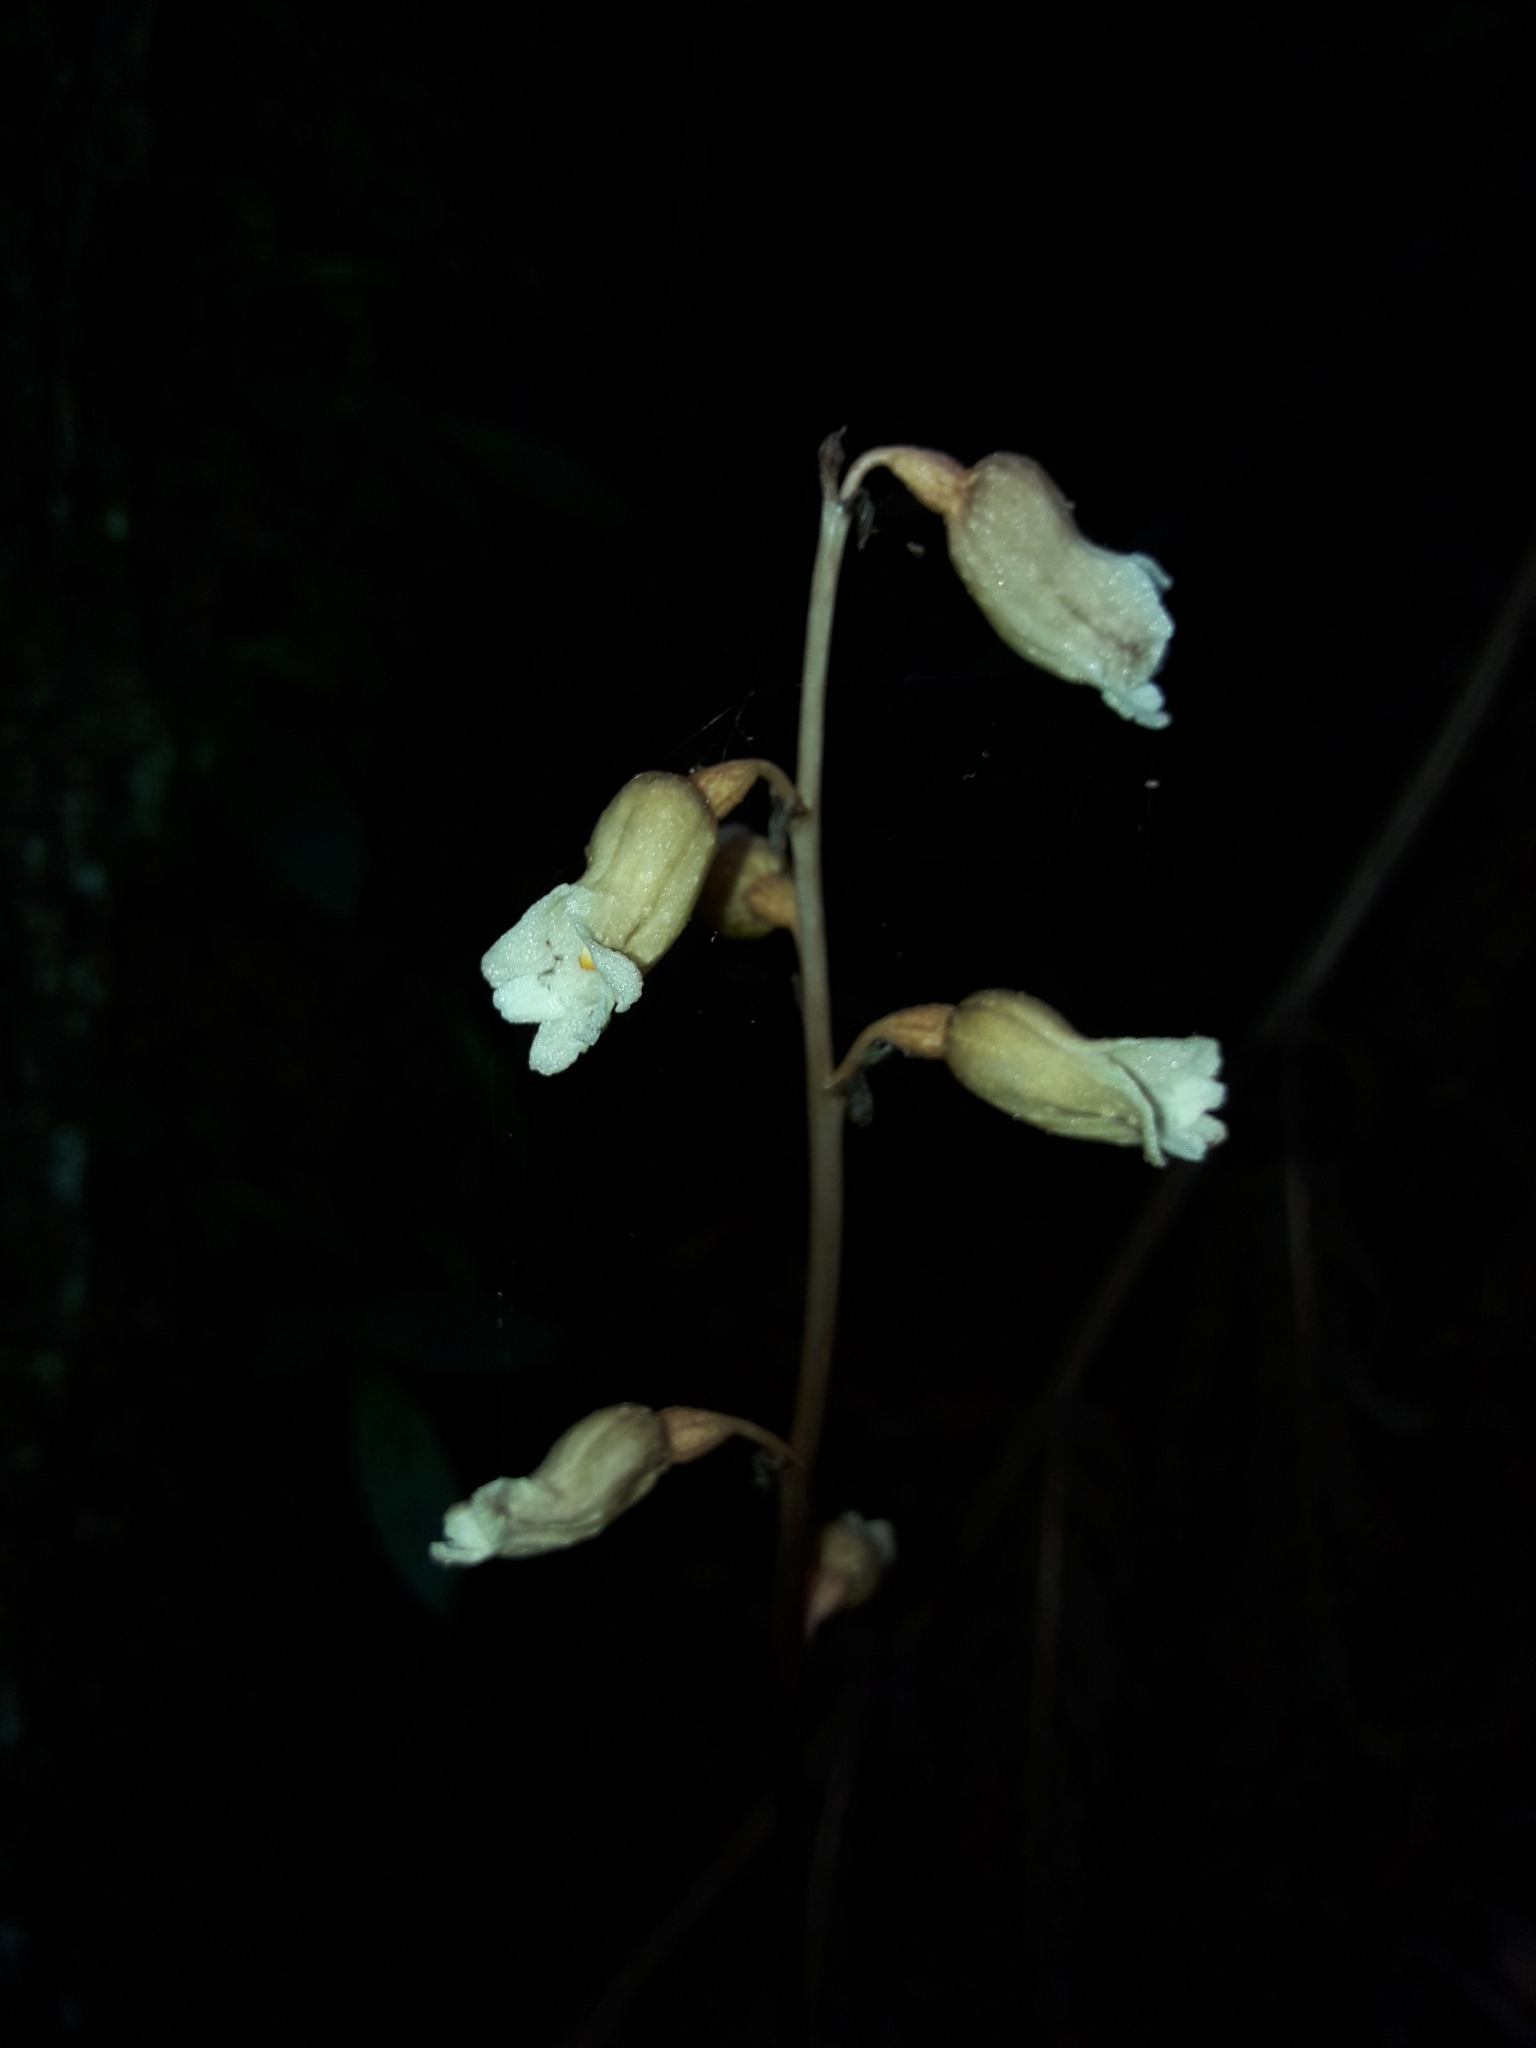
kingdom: Plantae
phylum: Tracheophyta
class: Liliopsida
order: Asparagales
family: Orchidaceae
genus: Gastrodia
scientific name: Gastrodia sesamoides
